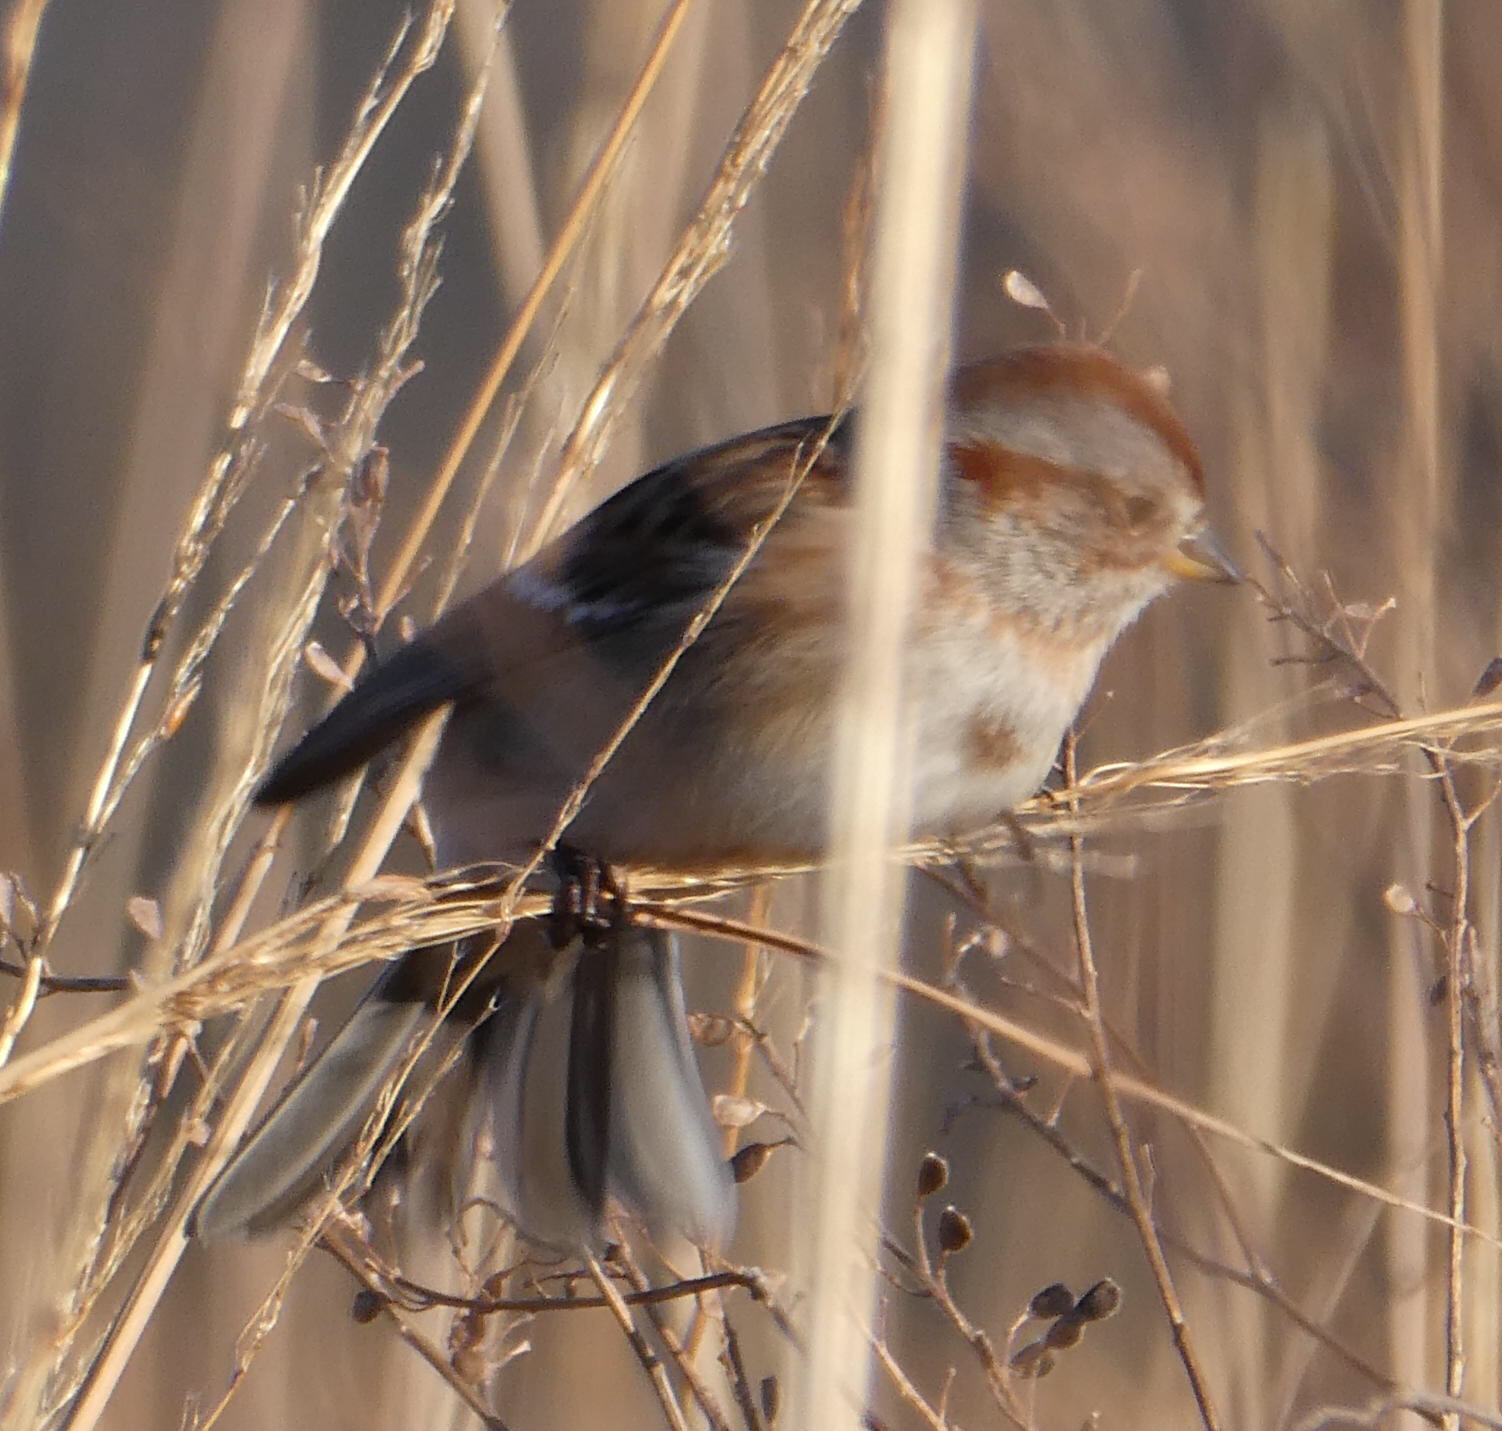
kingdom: Animalia
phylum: Chordata
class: Aves
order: Passeriformes
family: Passerellidae
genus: Spizelloides
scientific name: Spizelloides arborea
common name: American tree sparrow
